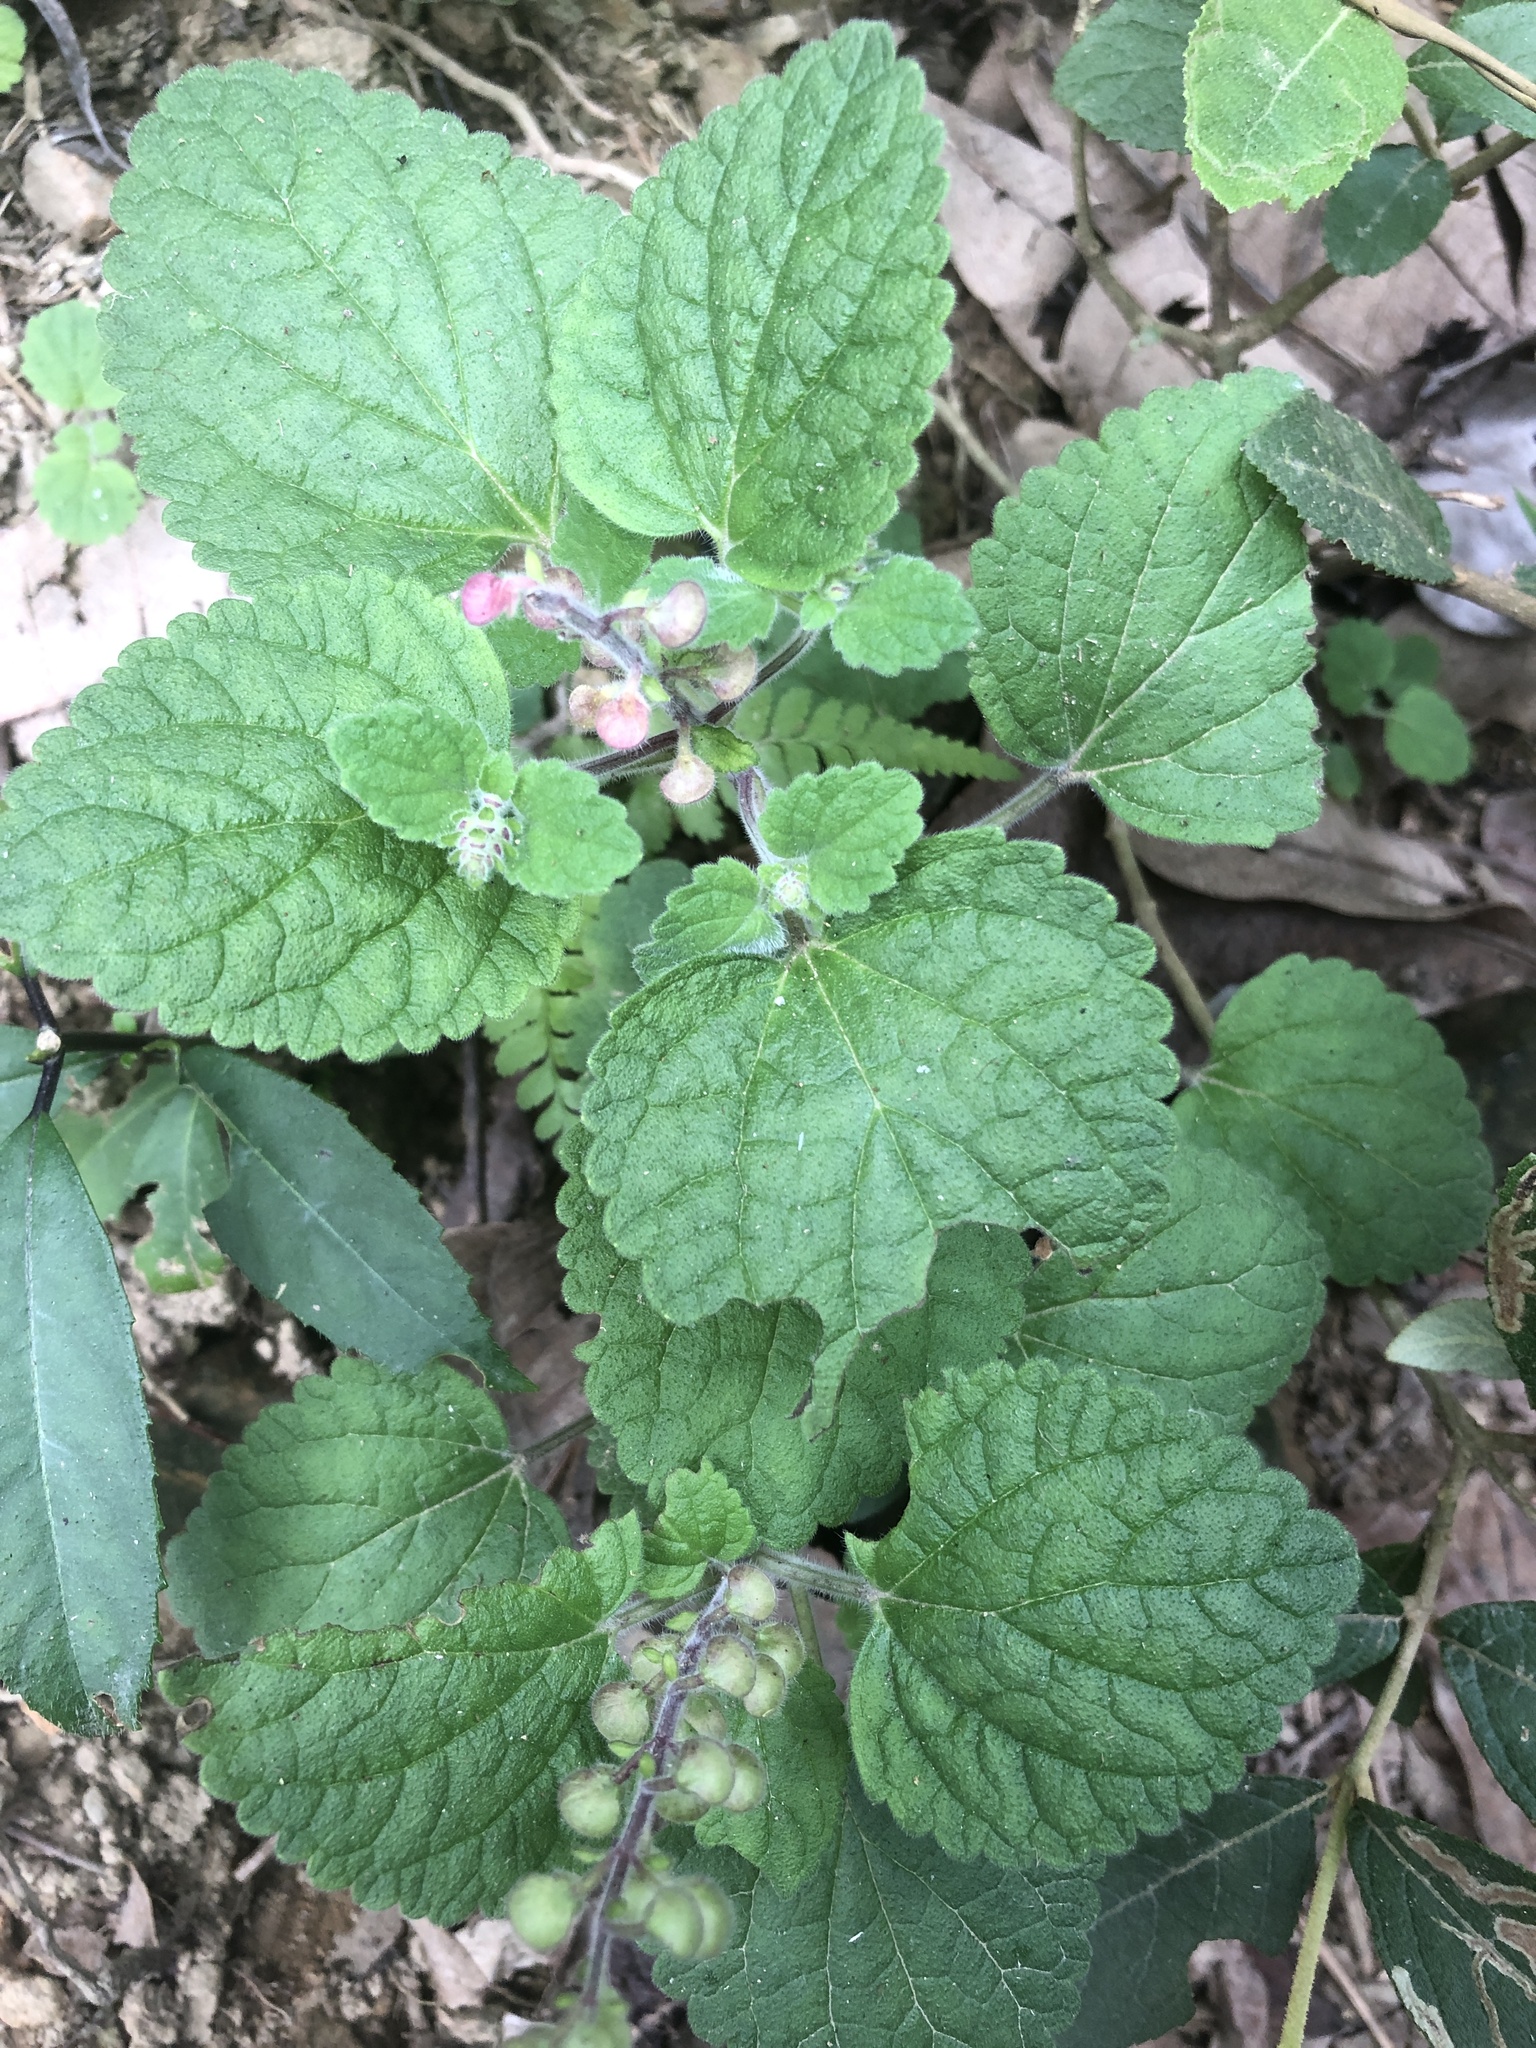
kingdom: Plantae
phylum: Tracheophyta
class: Magnoliopsida
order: Lamiales
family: Lamiaceae
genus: Scutellaria
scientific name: Scutellaria indica
